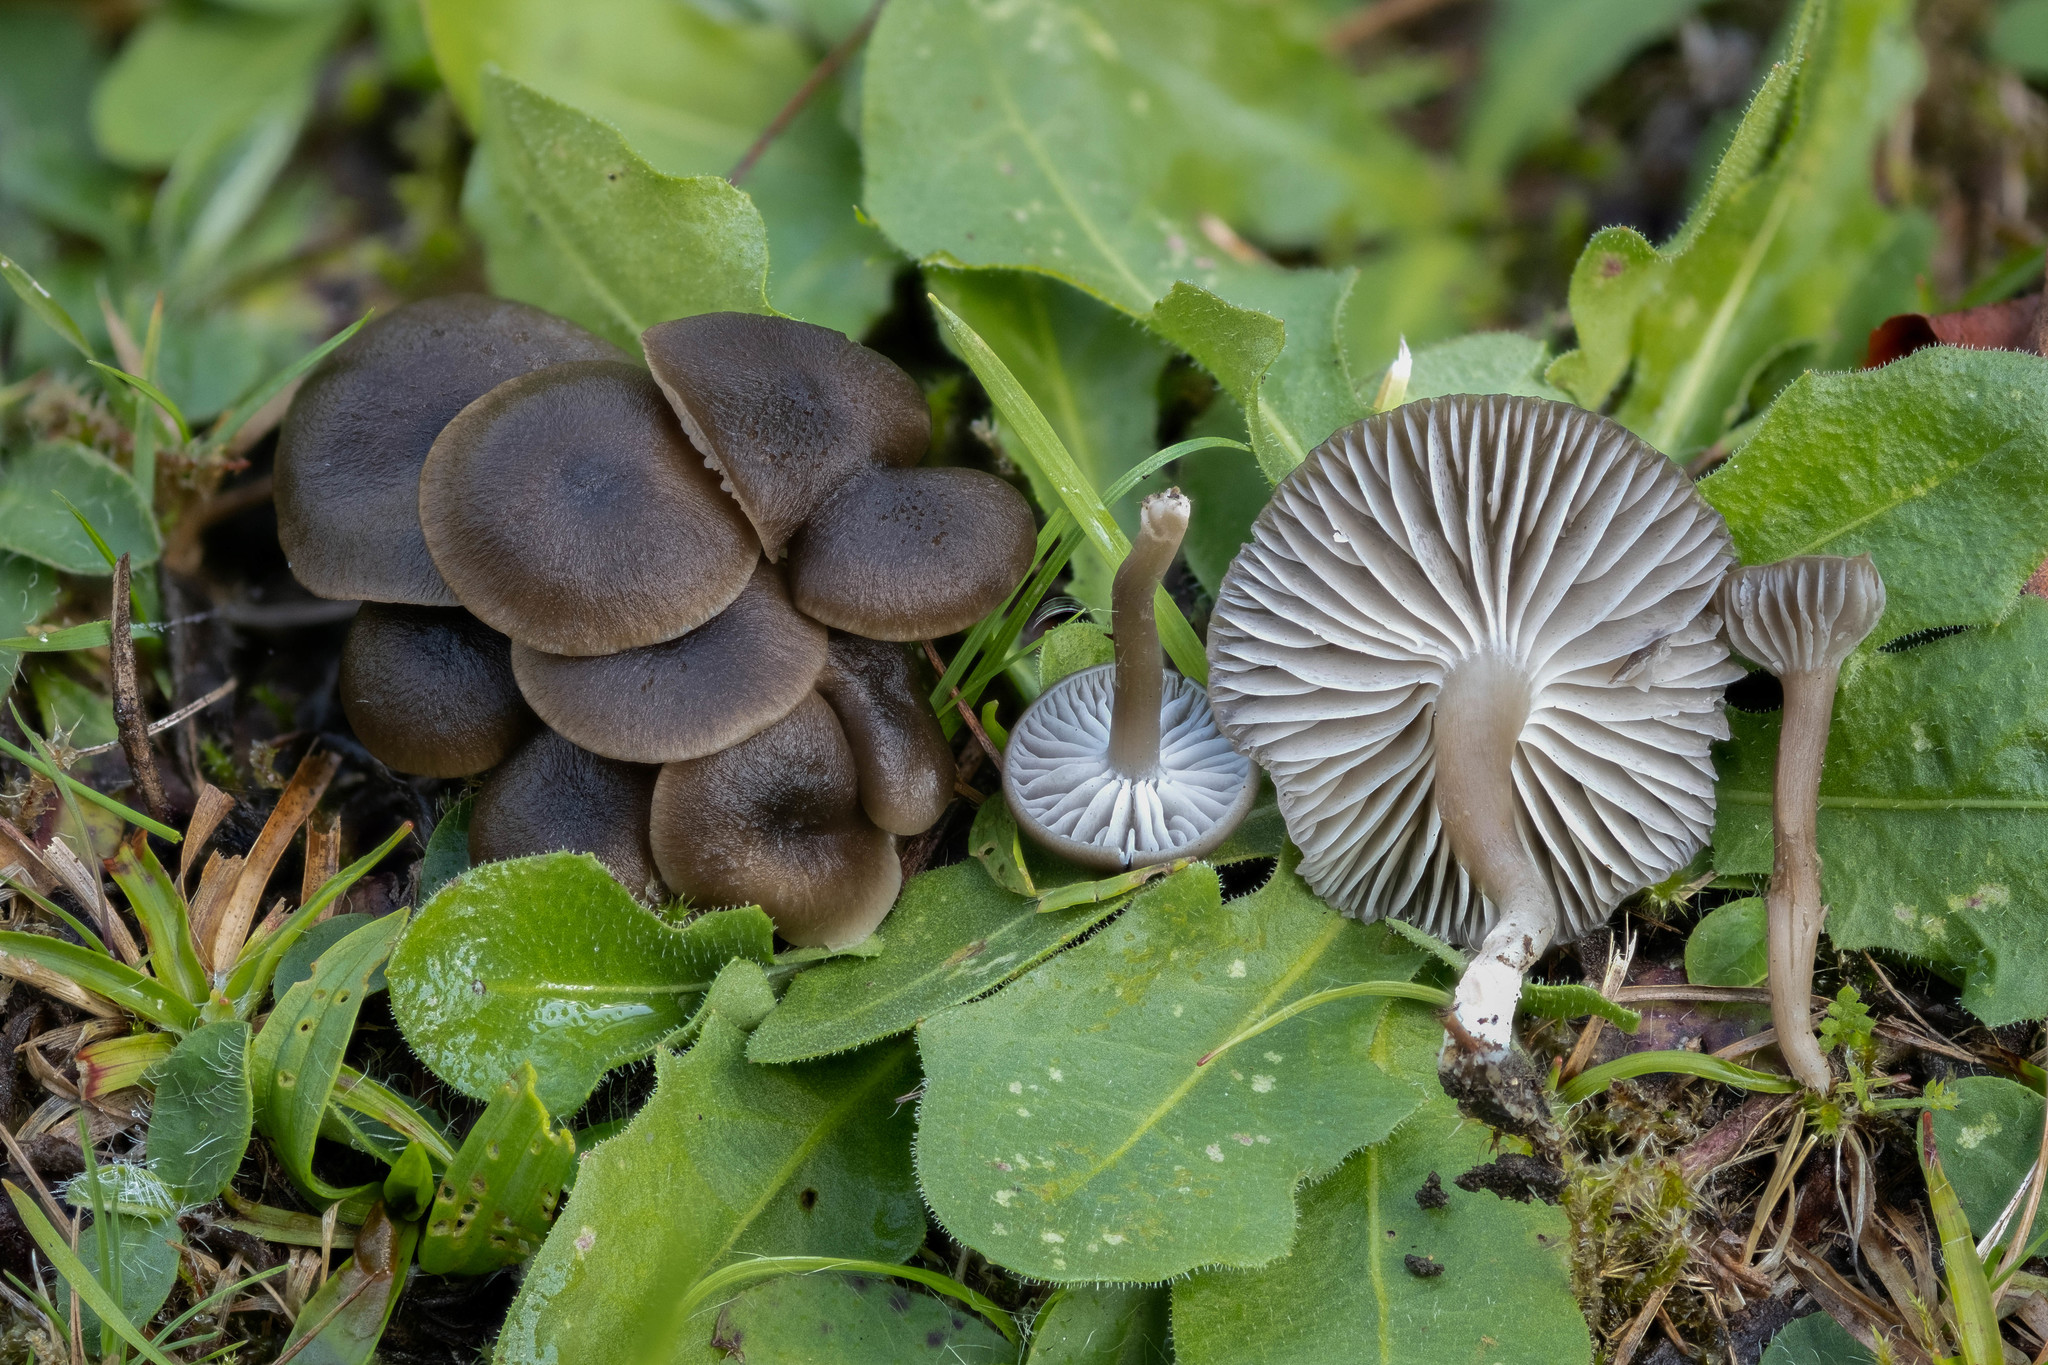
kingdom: Fungi
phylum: Basidiomycota
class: Agaricomycetes
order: Agaricales
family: Clavariaceae
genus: Lamelloclavaria
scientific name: Lamelloclavaria petersenii
